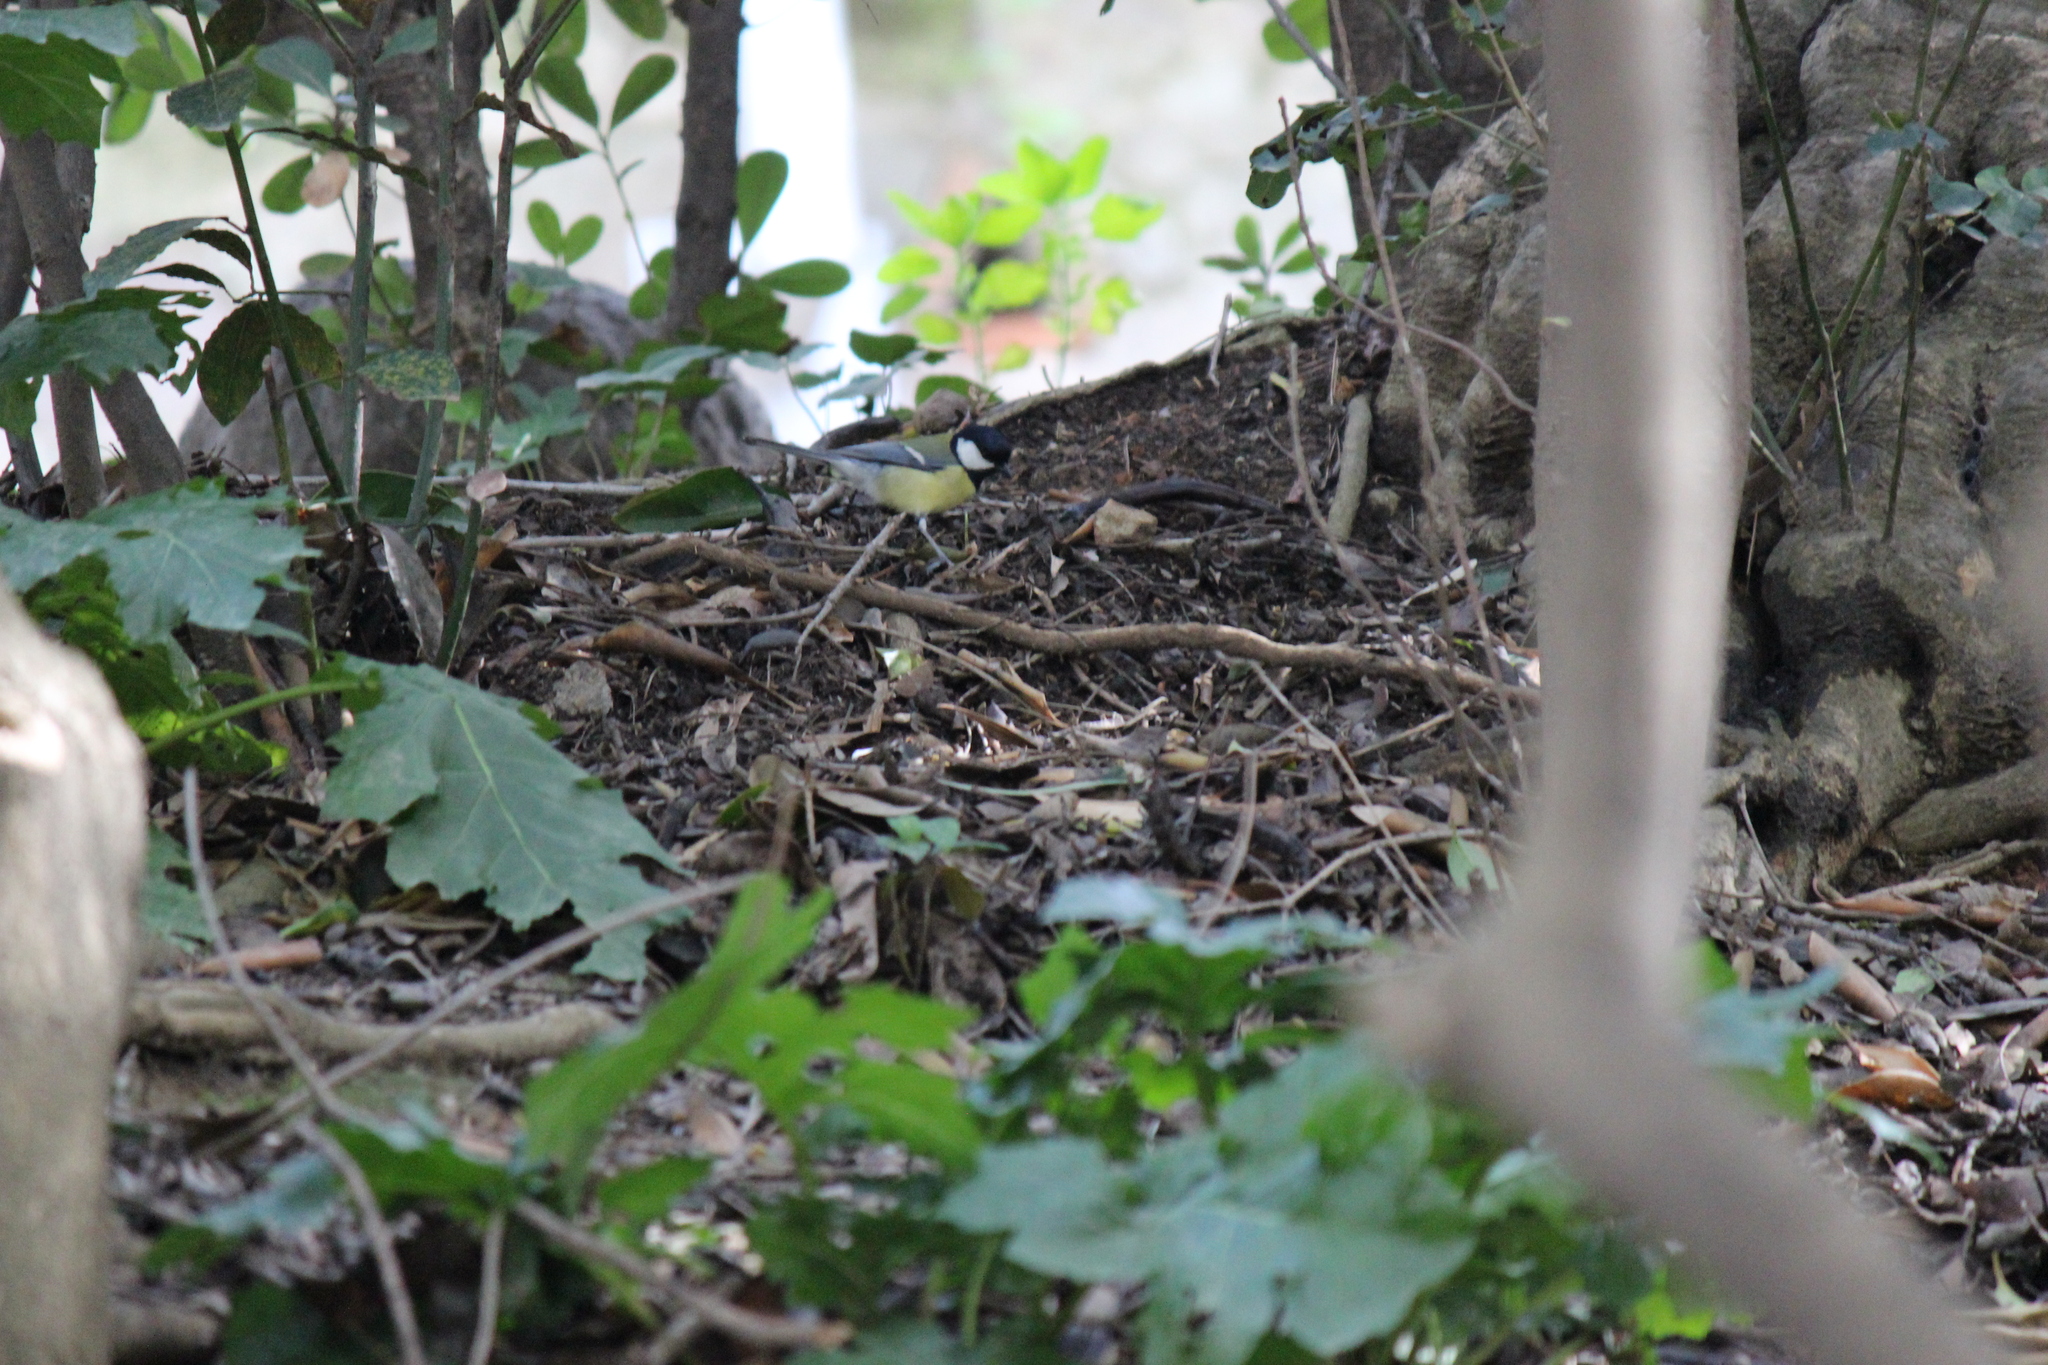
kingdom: Animalia
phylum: Chordata
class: Aves
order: Passeriformes
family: Paridae
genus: Parus
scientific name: Parus major
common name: Great tit
